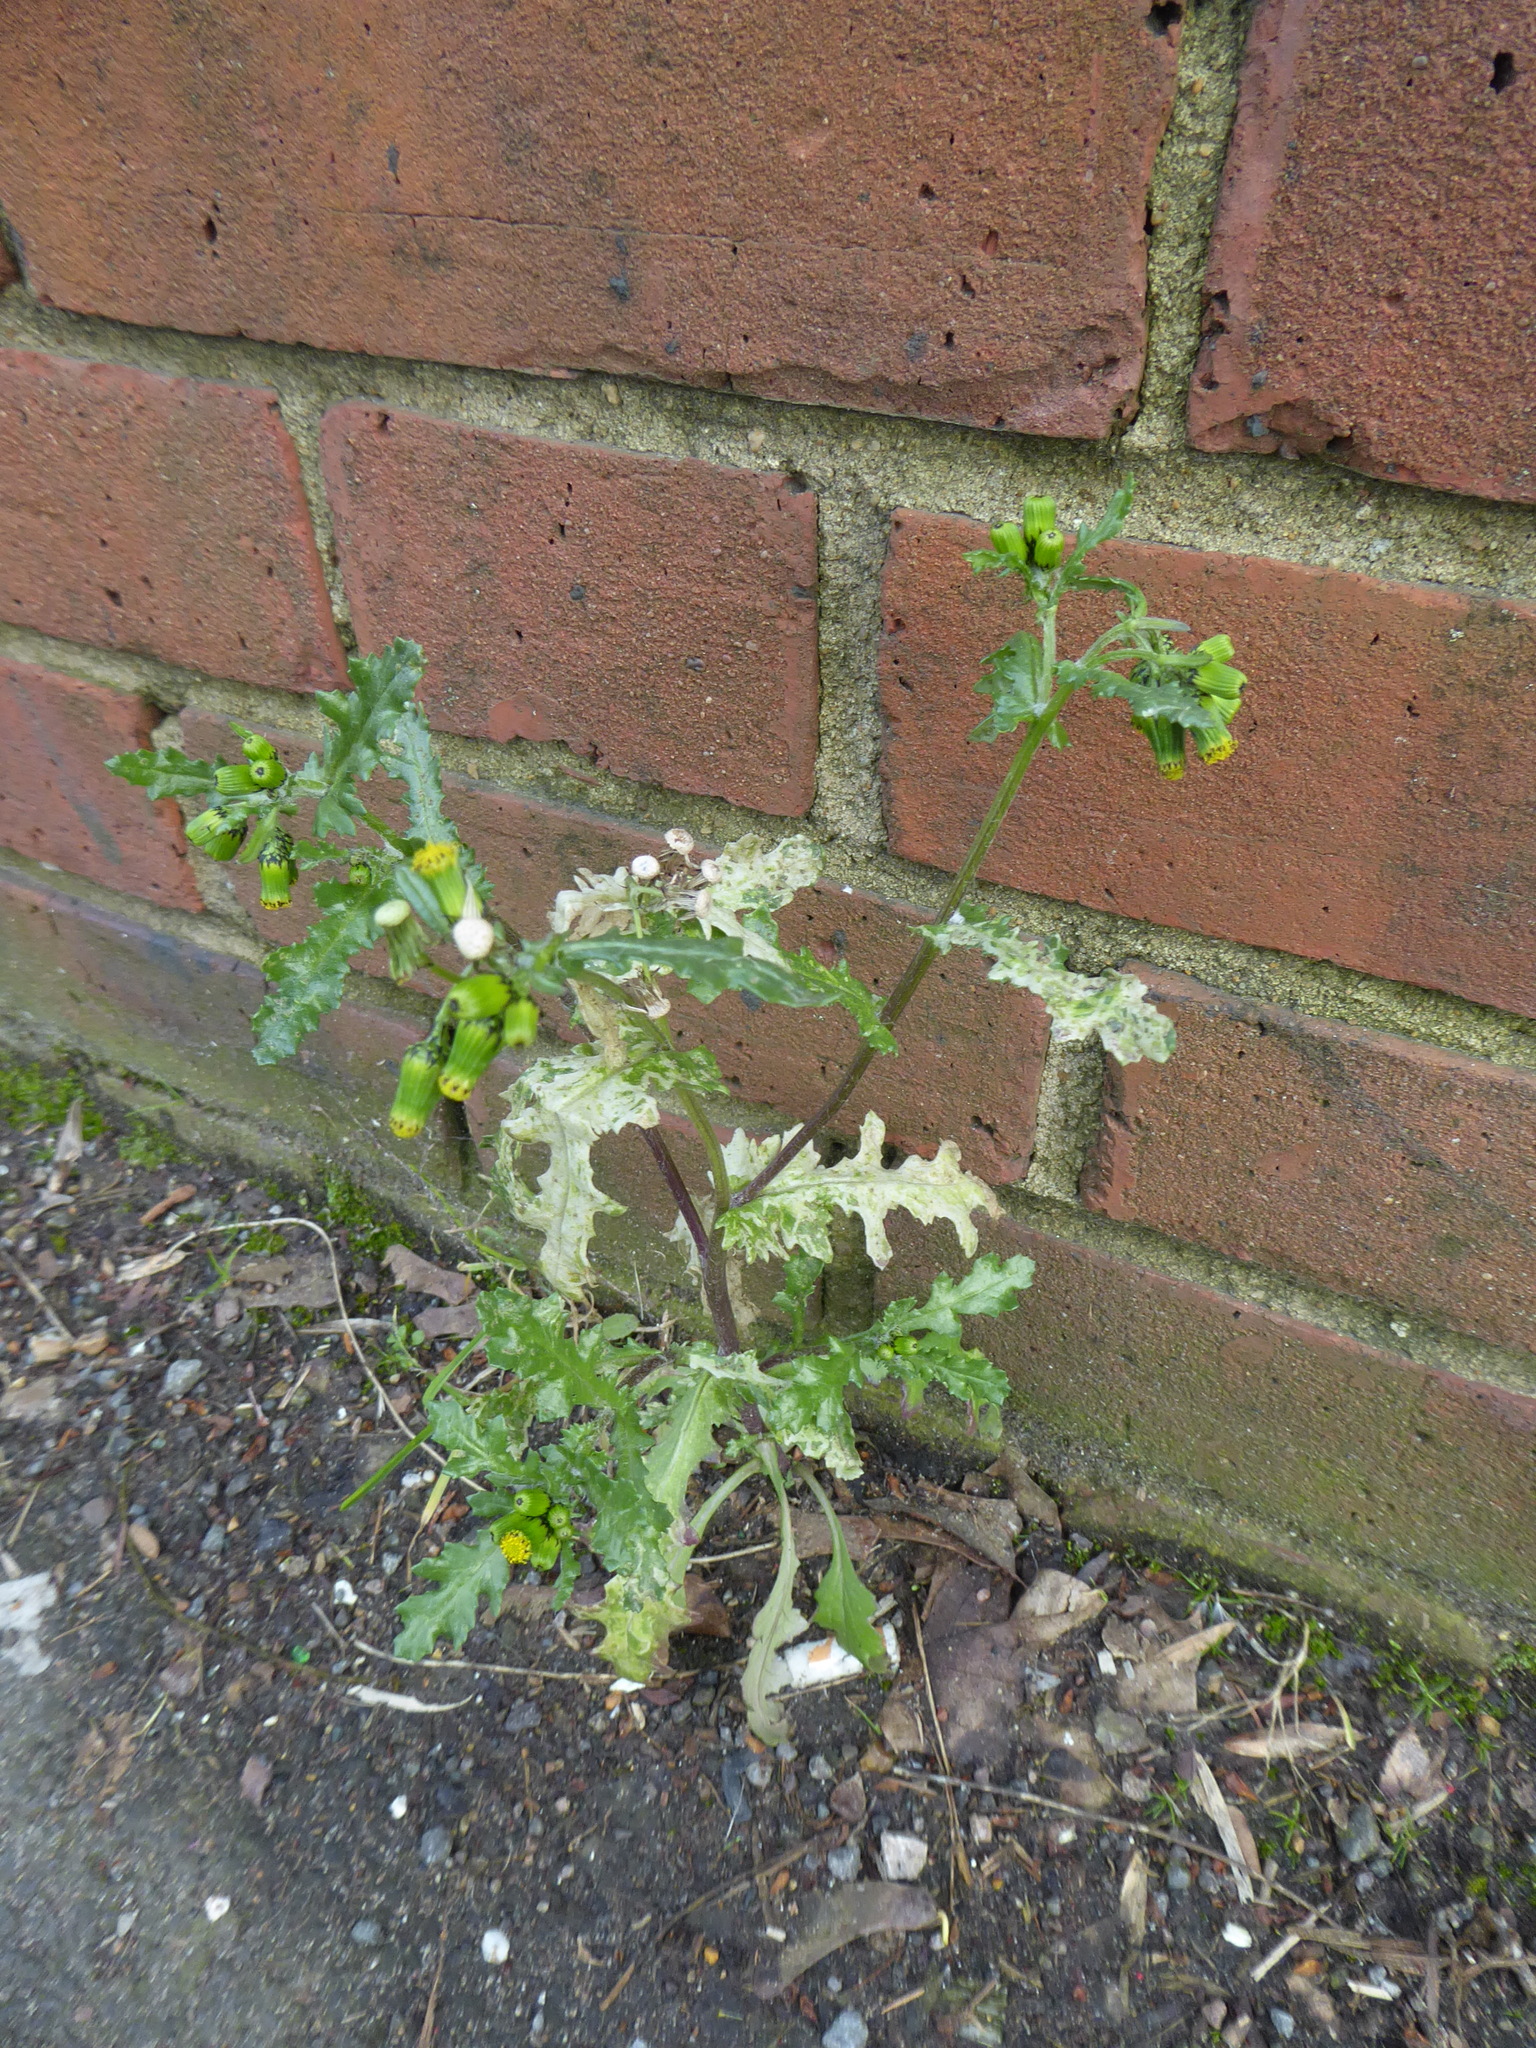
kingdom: Plantae
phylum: Tracheophyta
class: Magnoliopsida
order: Asterales
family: Asteraceae
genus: Senecio
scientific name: Senecio vulgaris
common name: Old-man-in-the-spring
